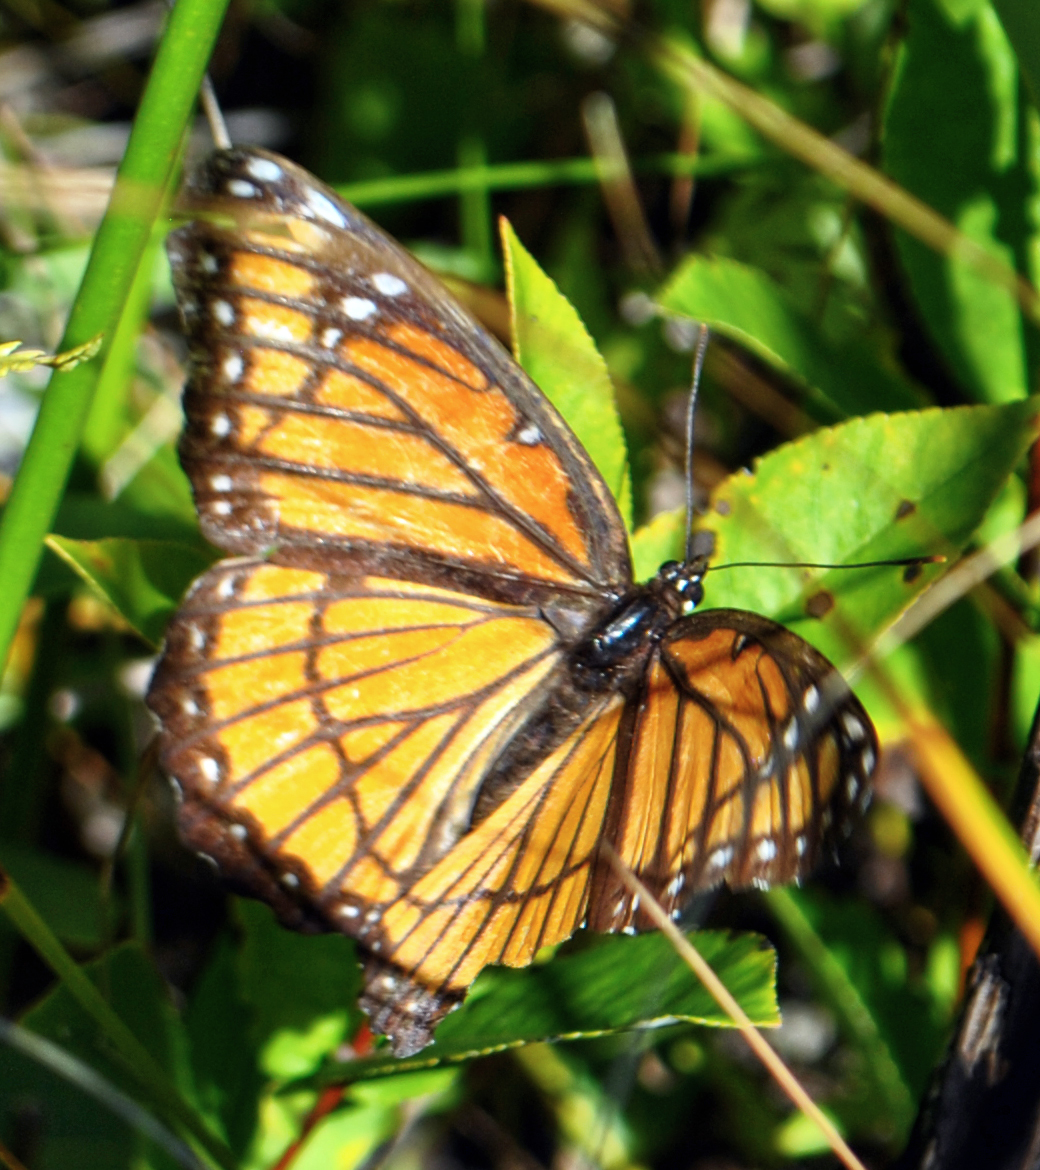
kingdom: Animalia
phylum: Arthropoda
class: Insecta
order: Lepidoptera
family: Nymphalidae
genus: Limenitis
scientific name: Limenitis archippus
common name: Viceroy
